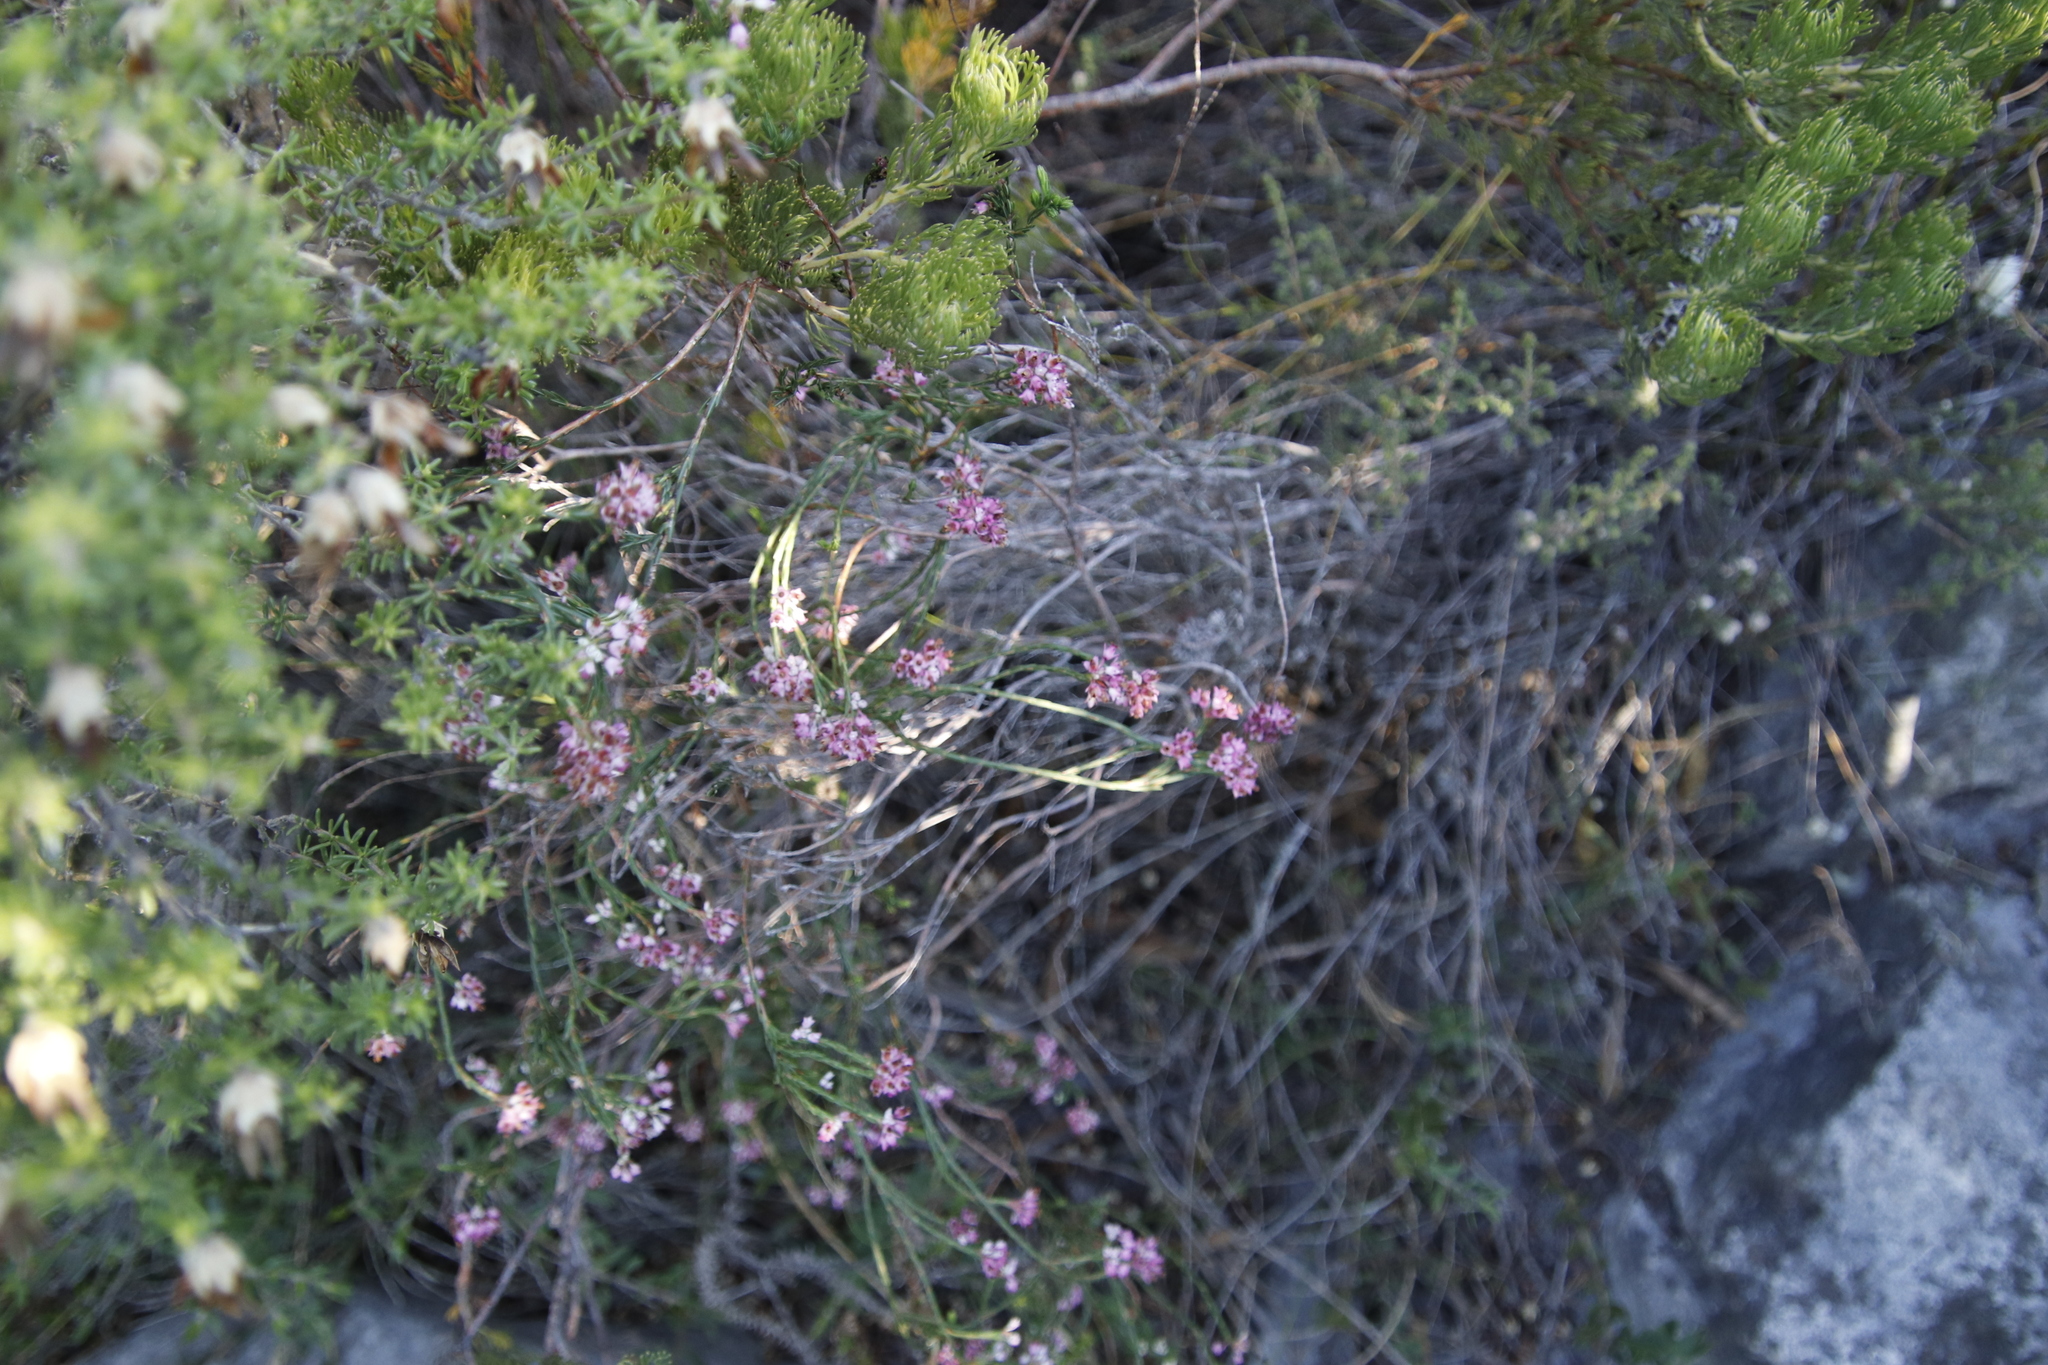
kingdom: Plantae
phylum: Tracheophyta
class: Magnoliopsida
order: Ericales
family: Ericaceae
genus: Erica
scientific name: Erica corifolia
